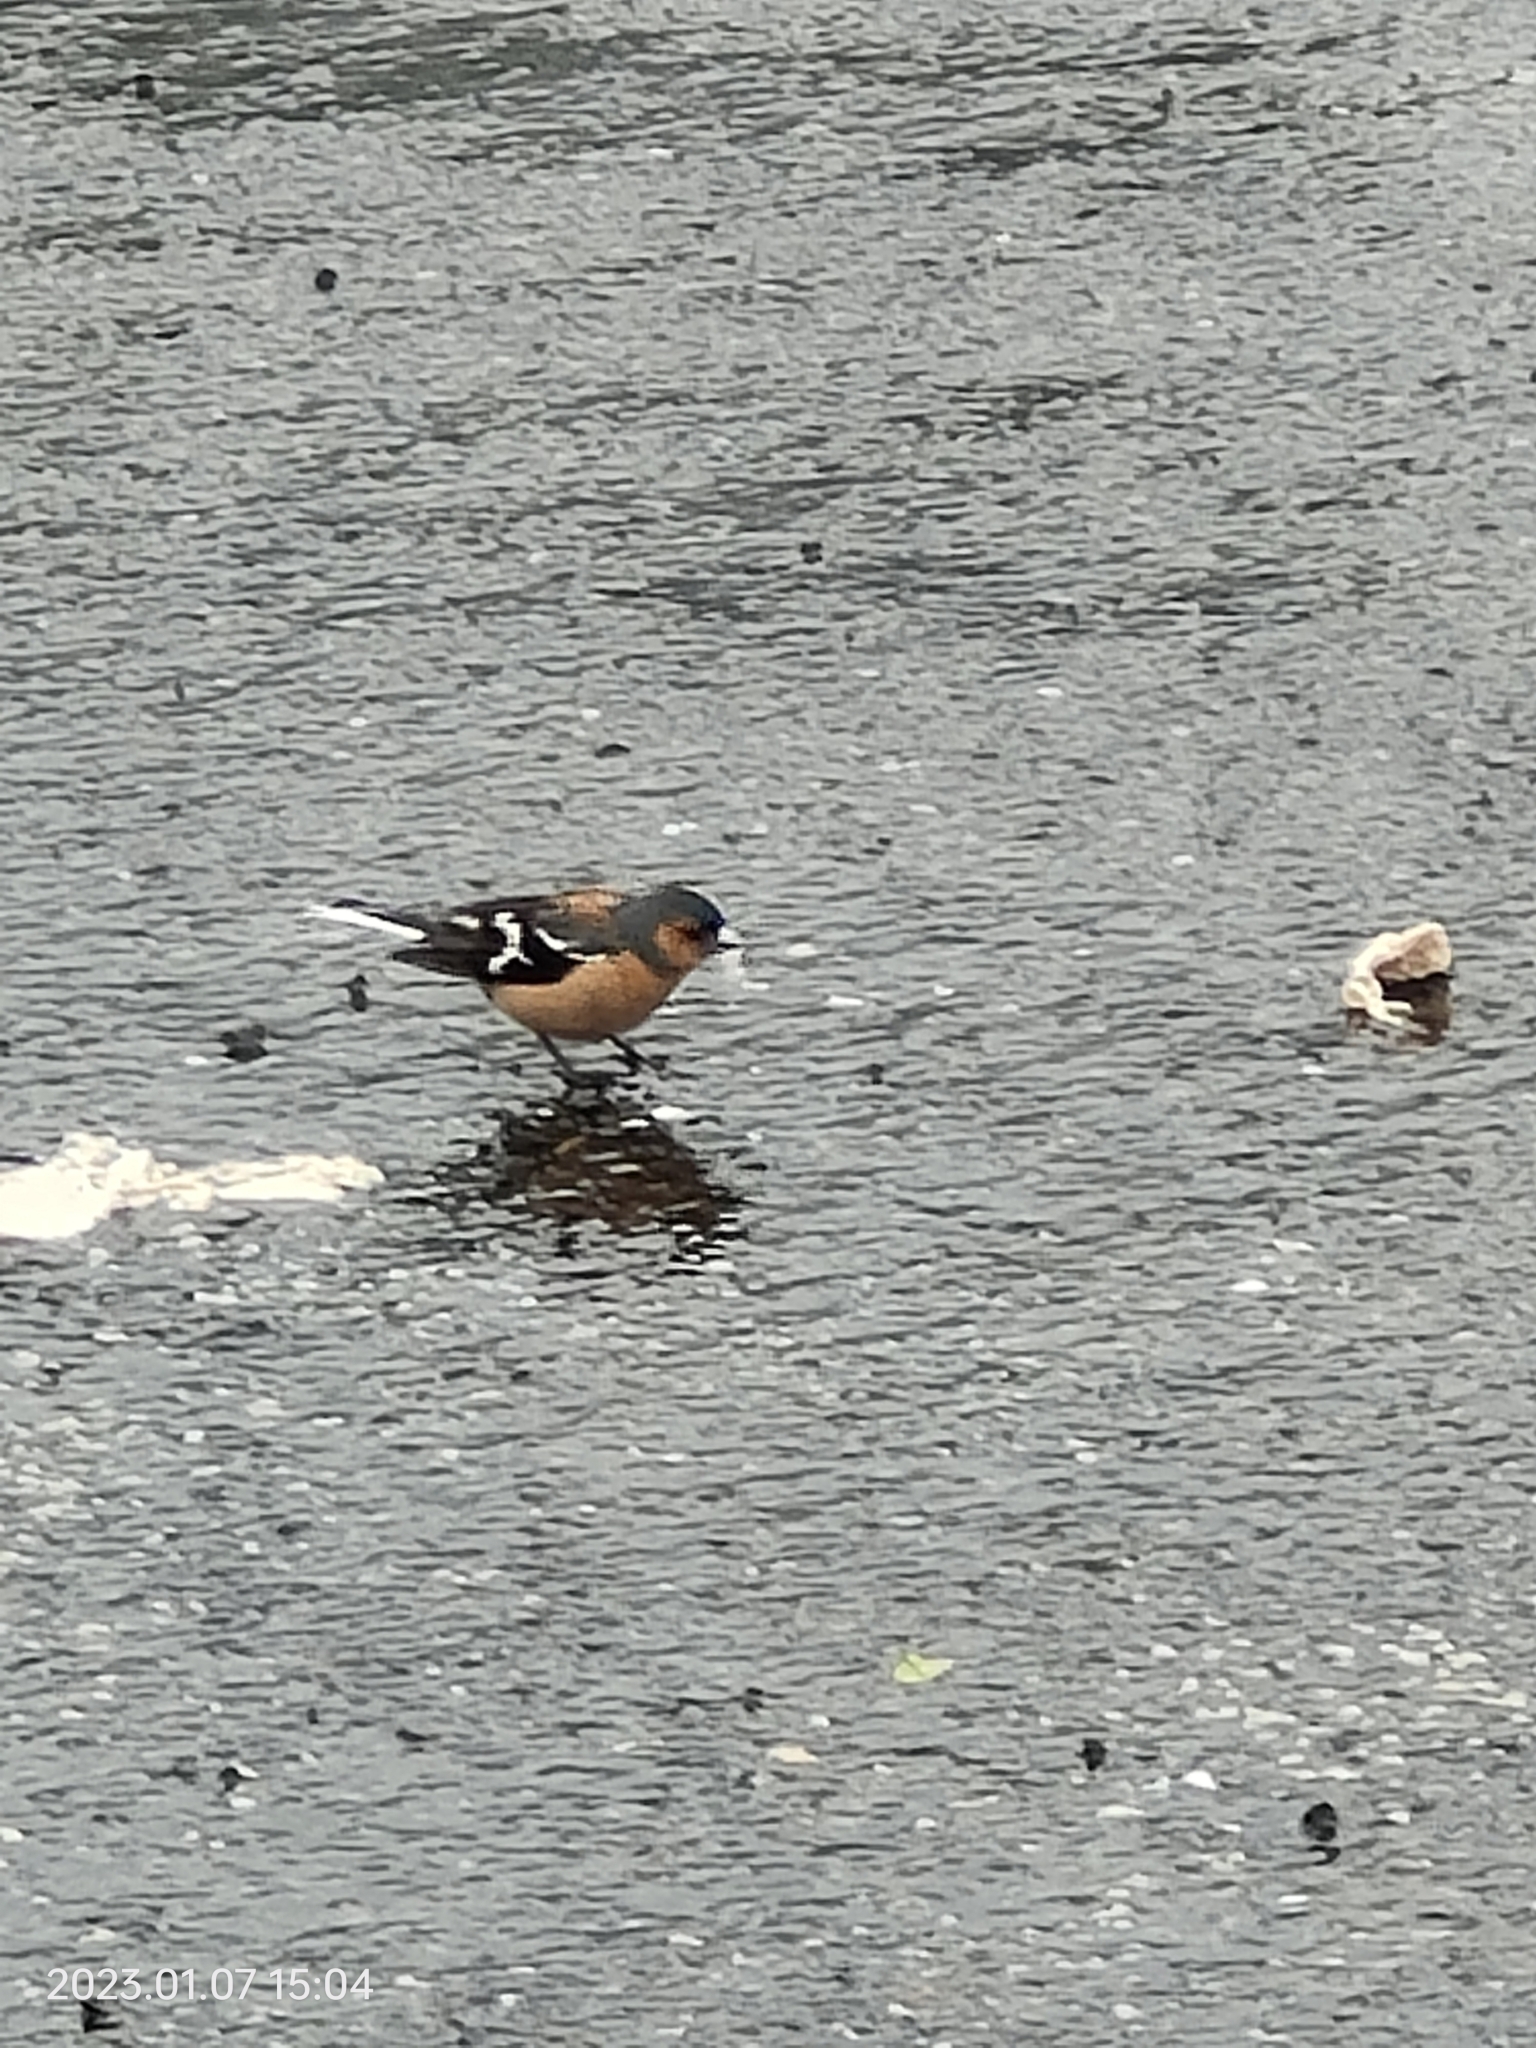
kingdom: Animalia
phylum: Chordata
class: Aves
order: Passeriformes
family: Fringillidae
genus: Fringilla
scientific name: Fringilla coelebs
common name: Common chaffinch
